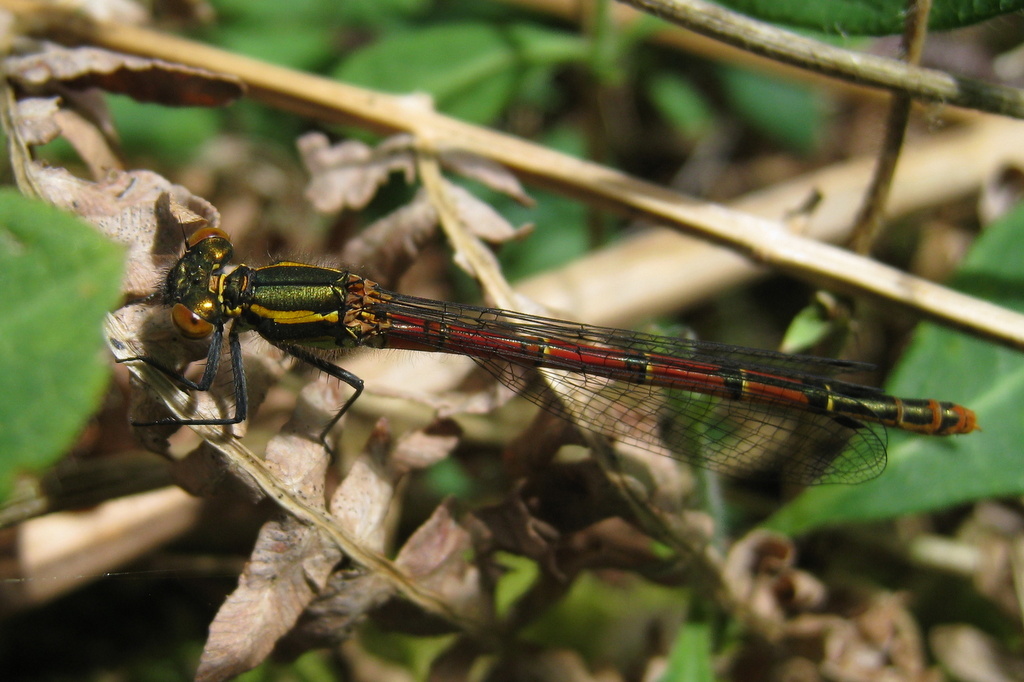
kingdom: Animalia
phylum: Arthropoda
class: Insecta
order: Odonata
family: Coenagrionidae
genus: Pyrrhosoma
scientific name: Pyrrhosoma nymphula
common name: Large red damsel
